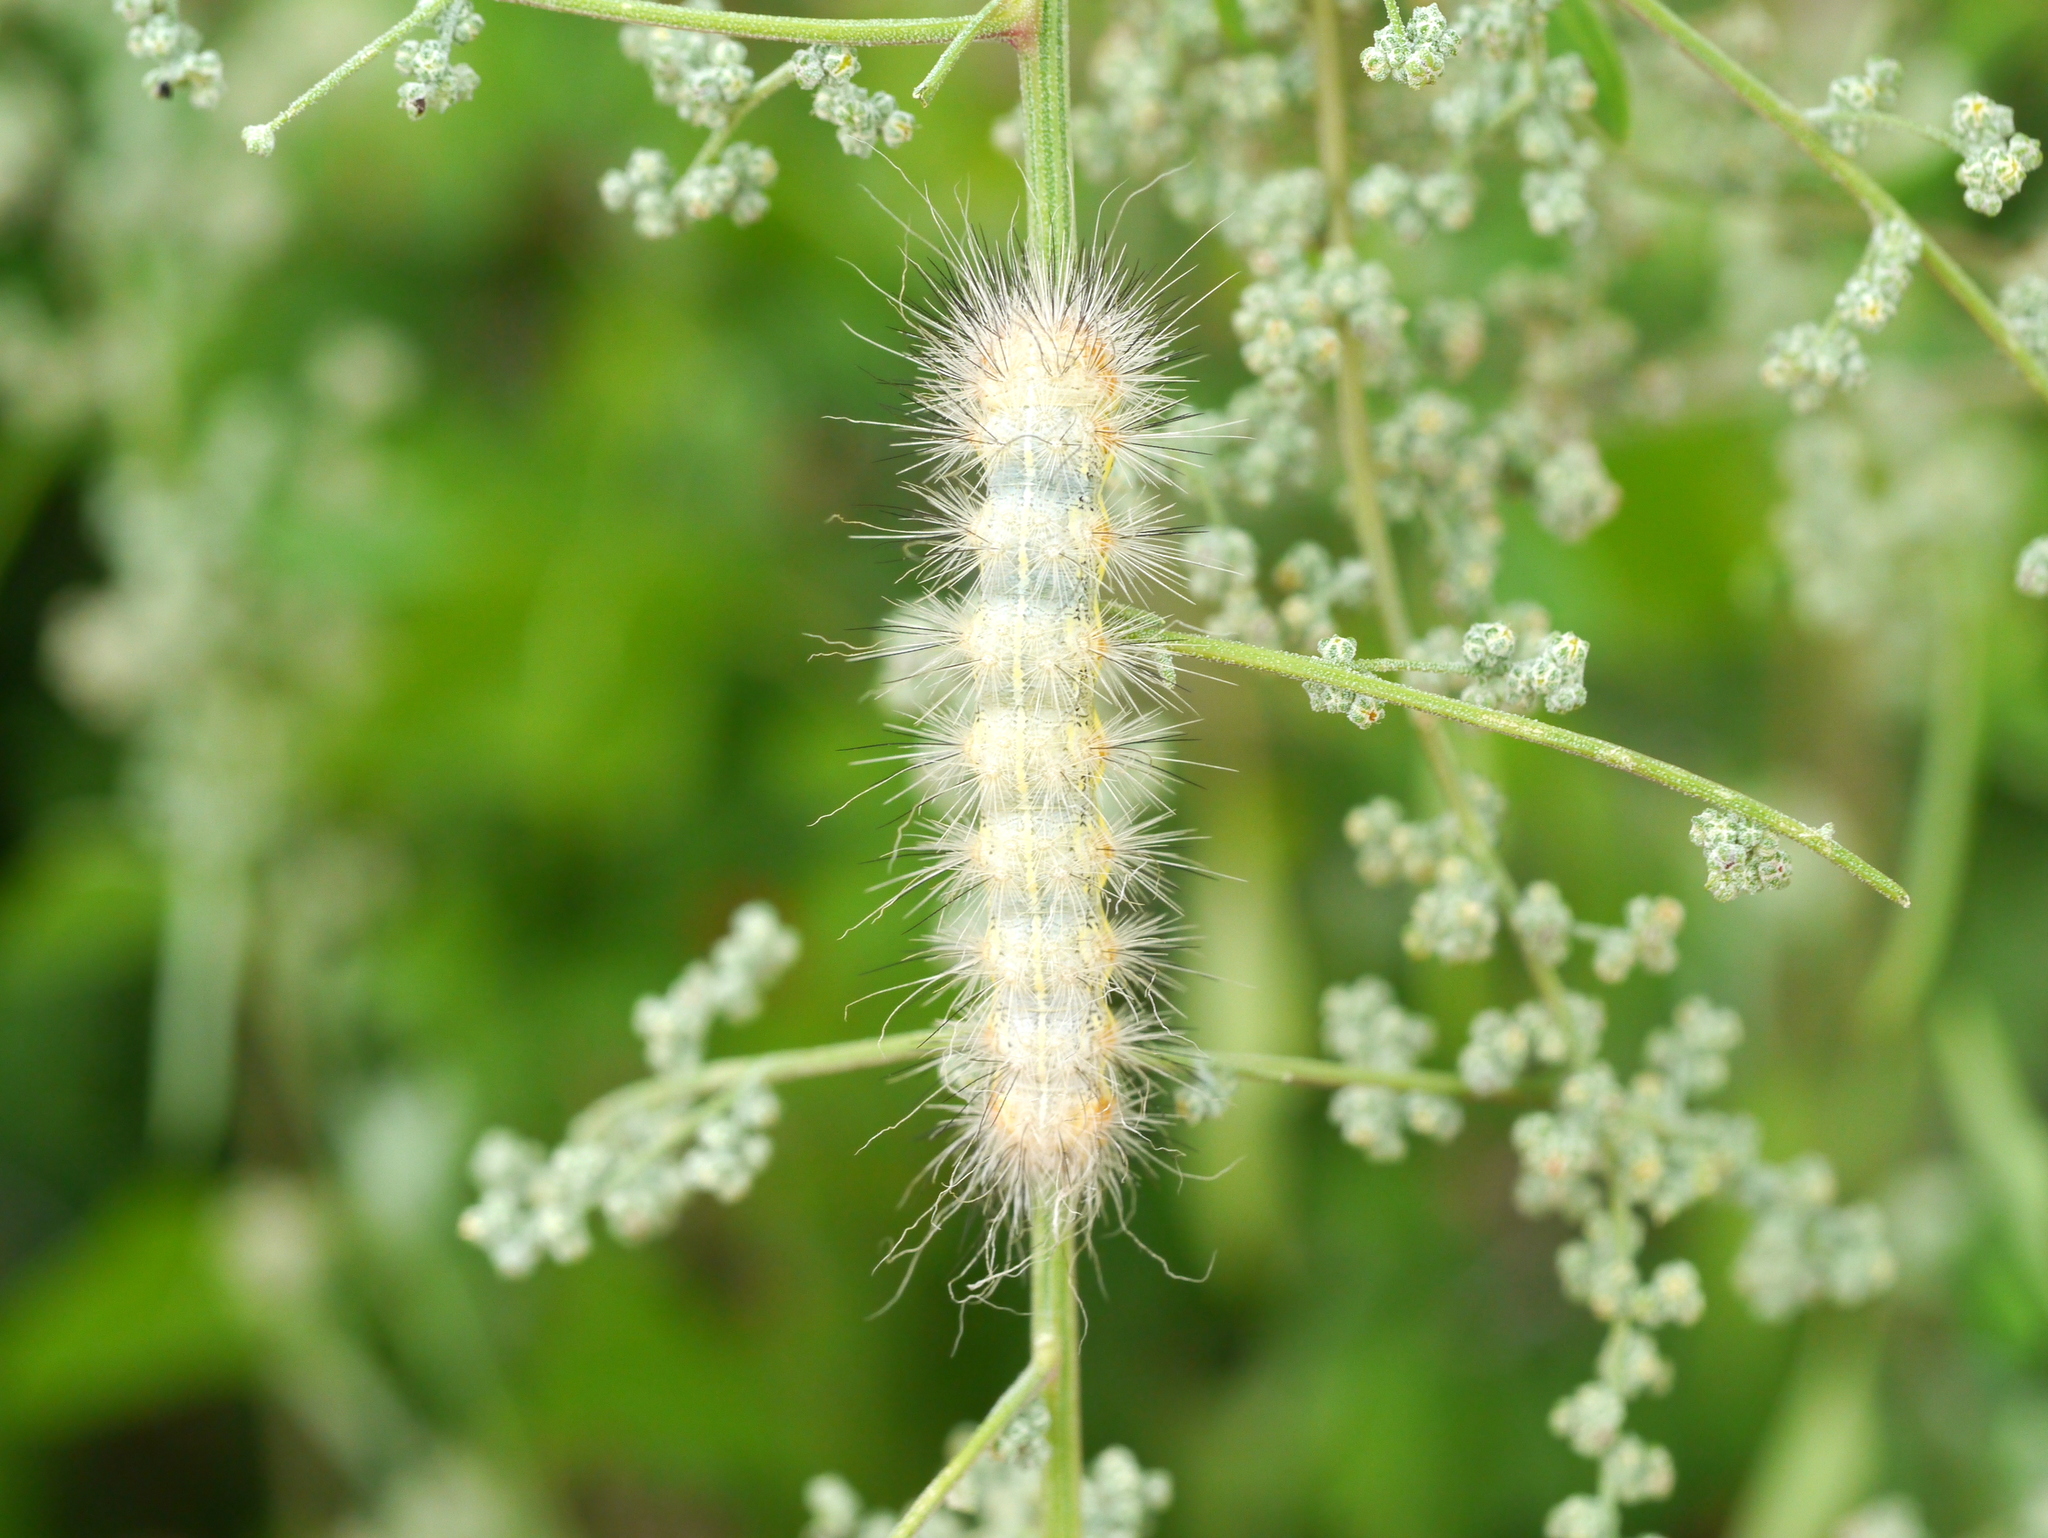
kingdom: Animalia
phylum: Arthropoda
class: Insecta
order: Lepidoptera
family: Erebidae
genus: Hyphantria
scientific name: Hyphantria cunea
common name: American white moth
